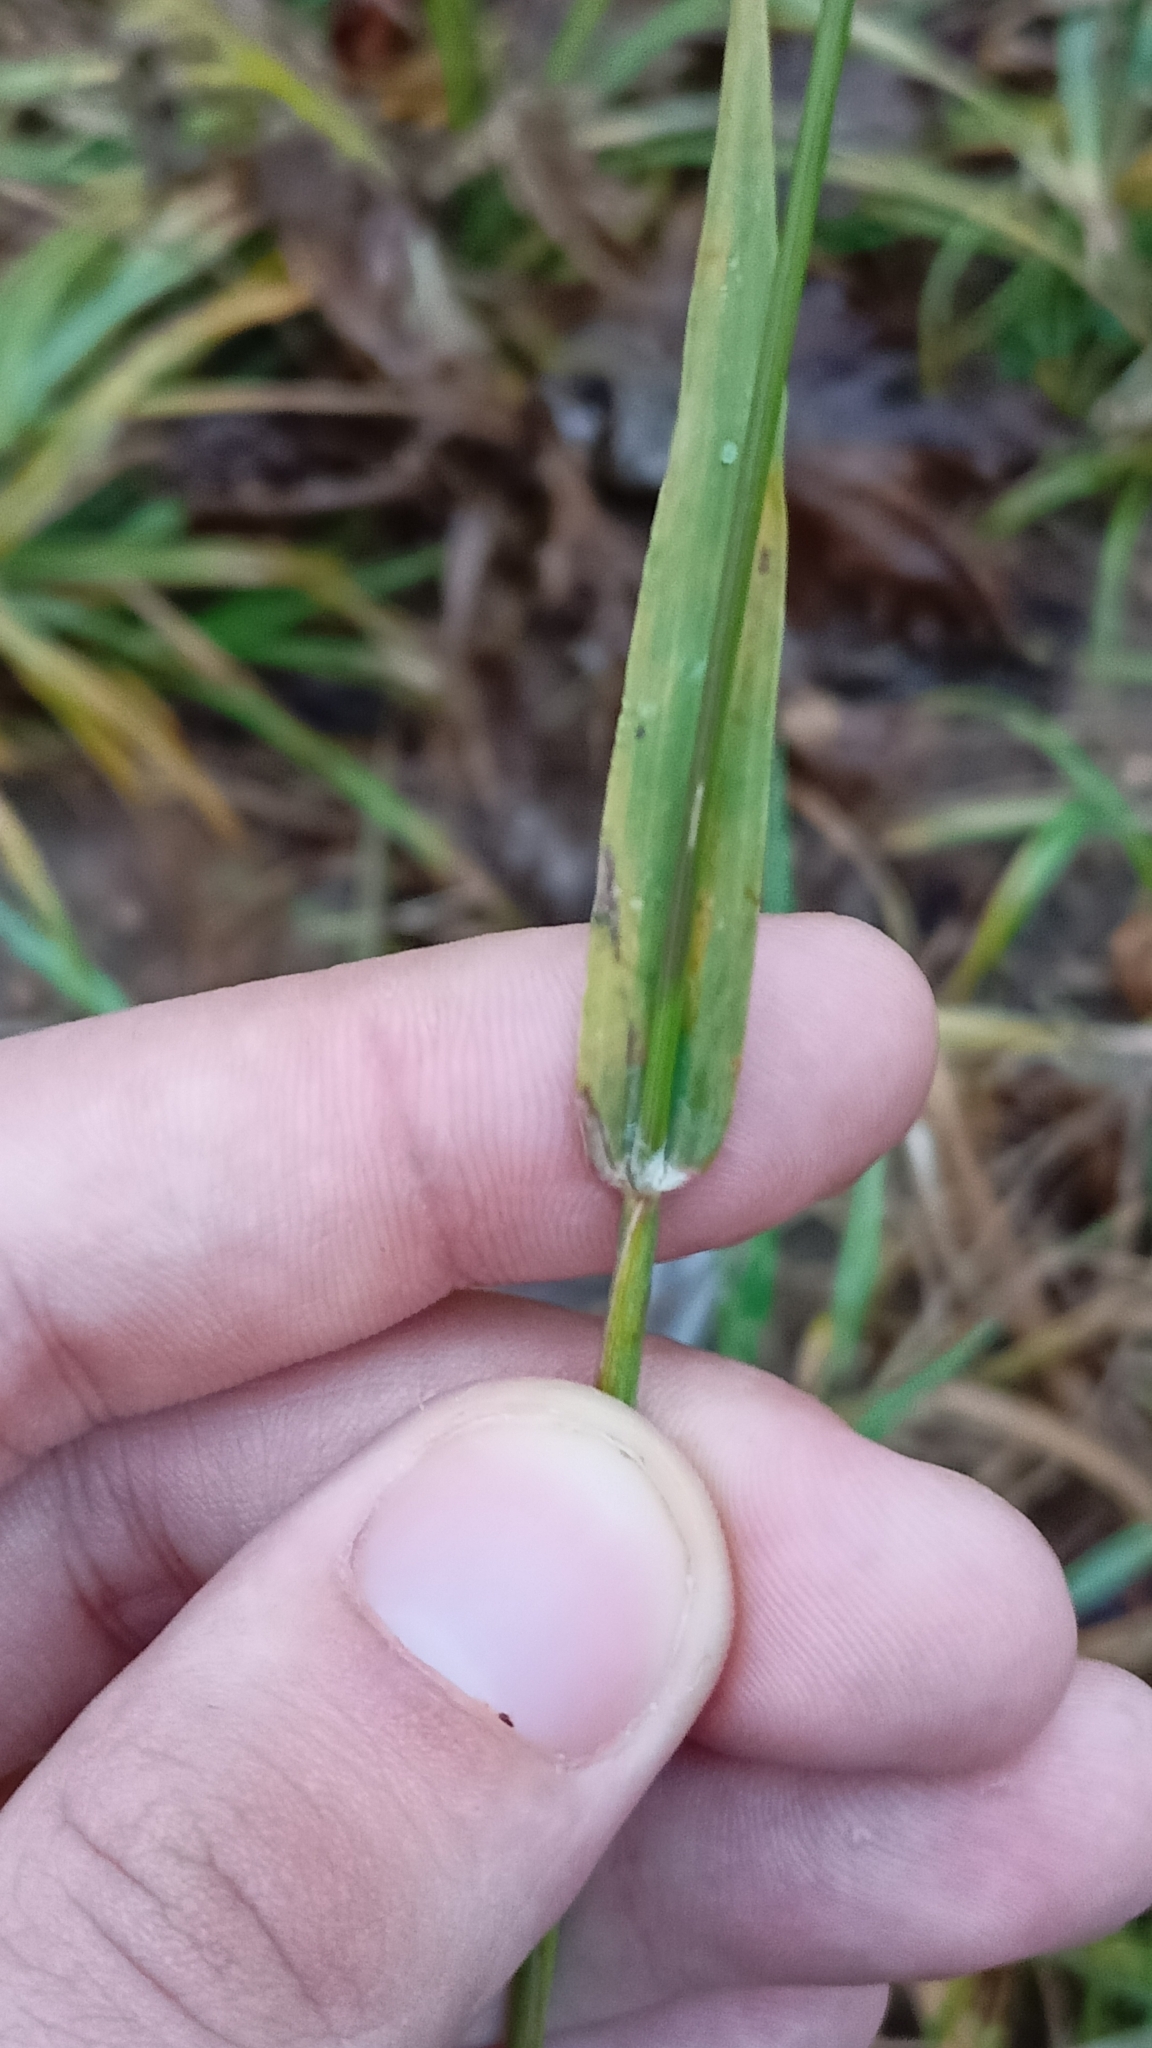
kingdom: Plantae
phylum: Tracheophyta
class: Liliopsida
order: Poales
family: Poaceae
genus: Phleum
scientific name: Phleum pratense
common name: Timothy grass
